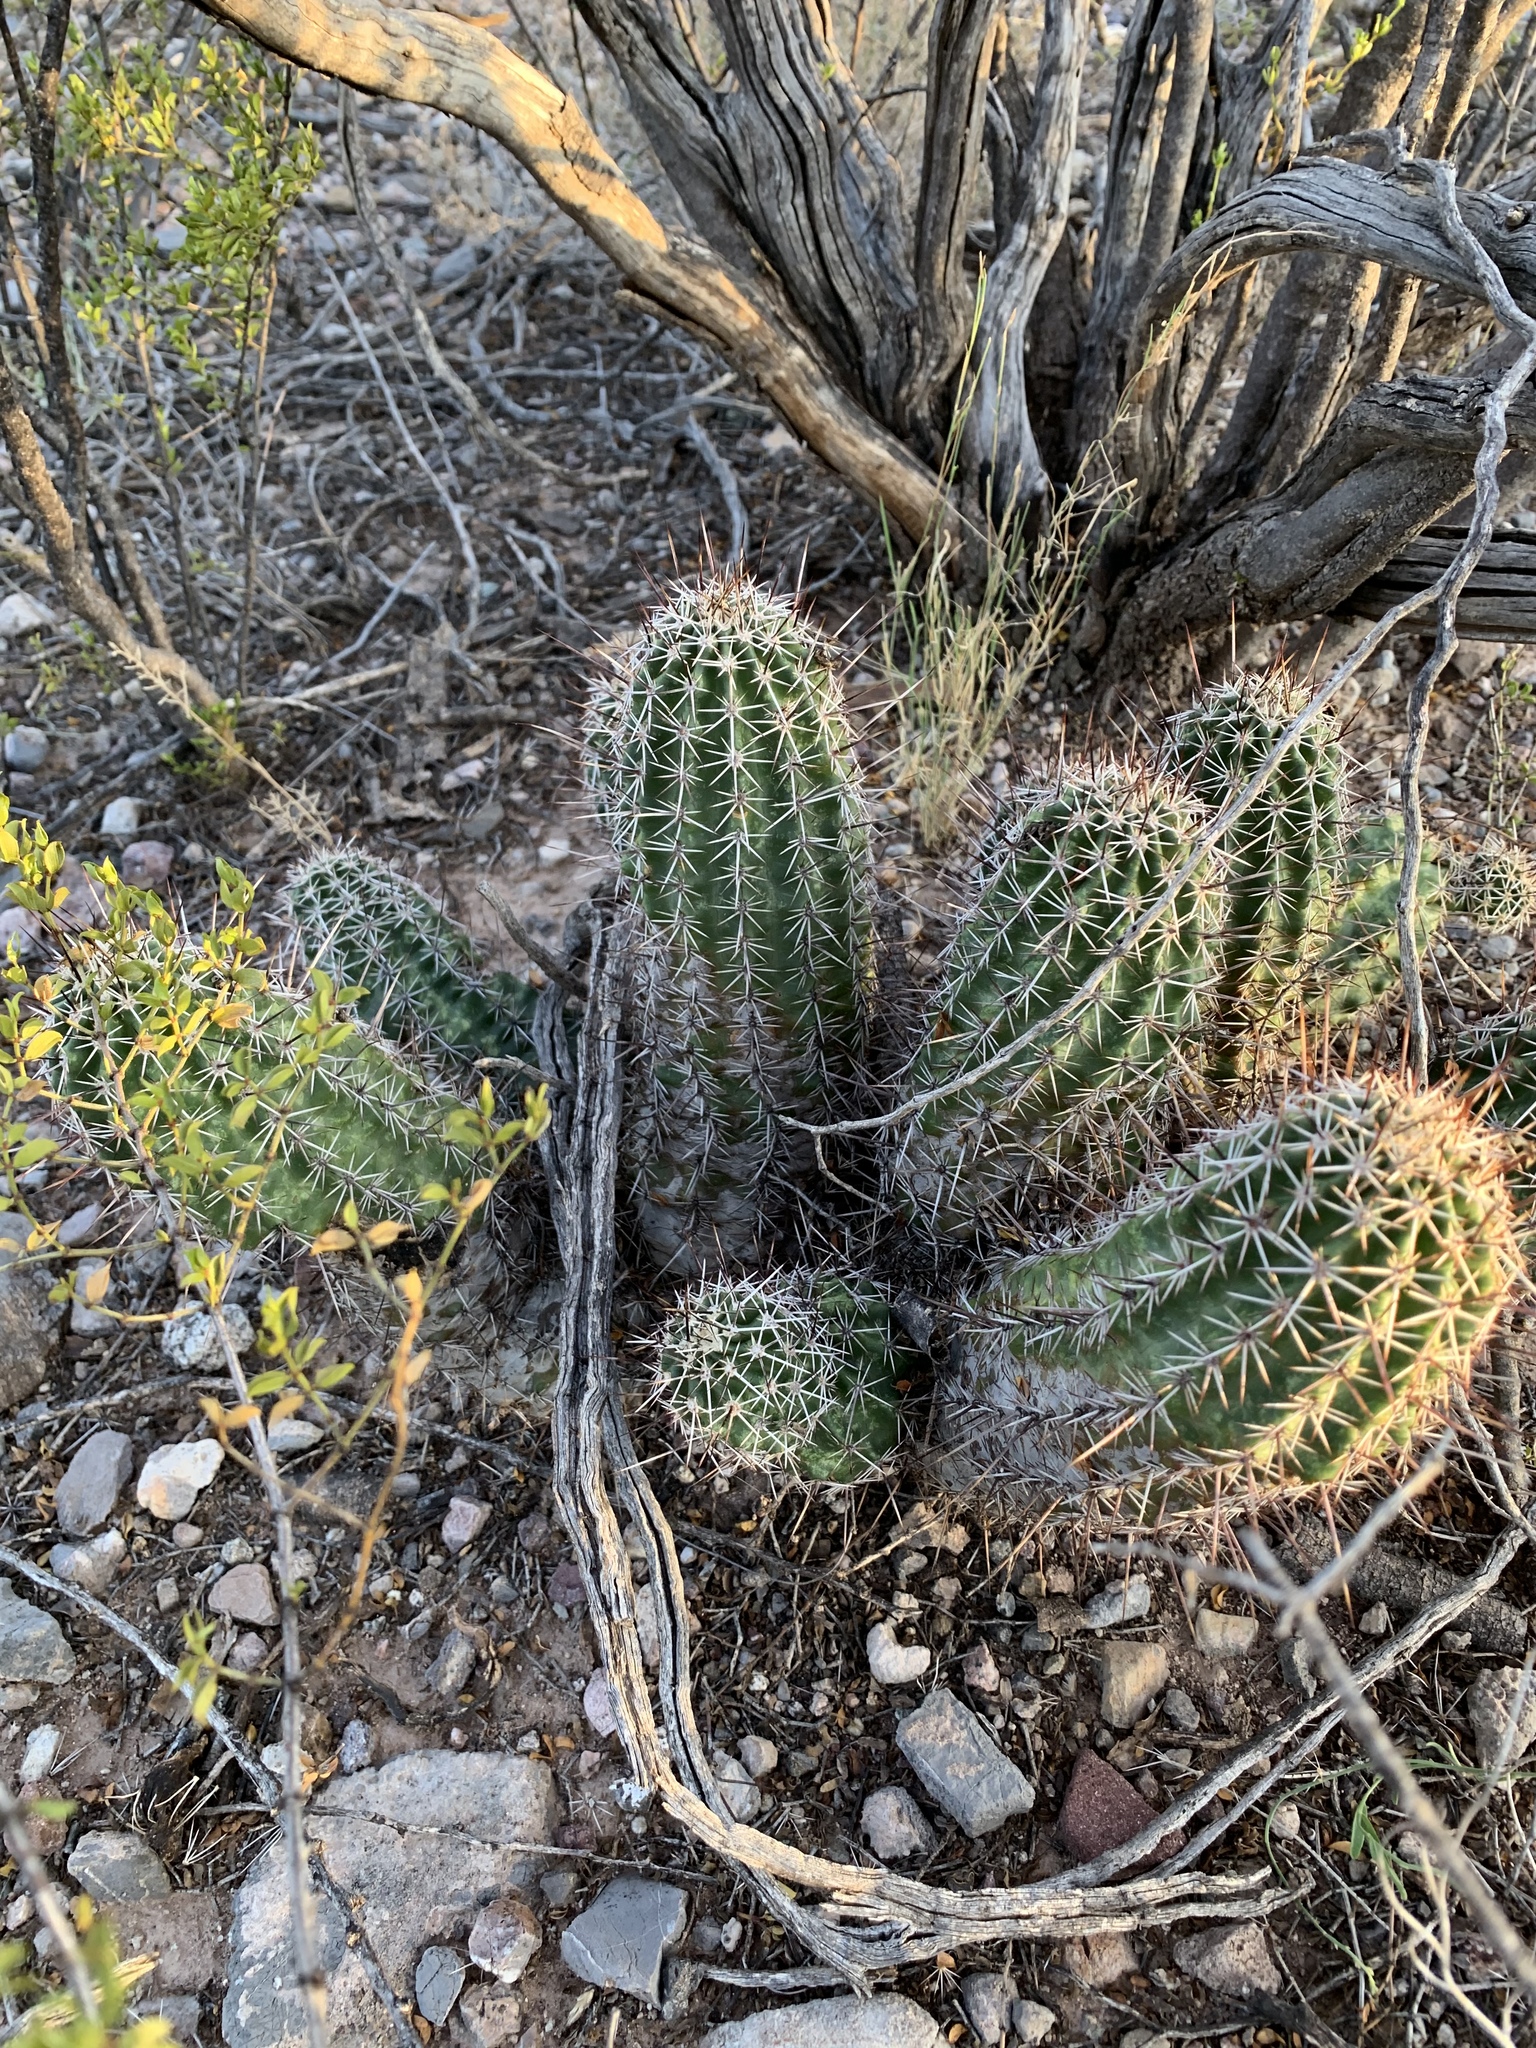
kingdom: Plantae
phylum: Tracheophyta
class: Magnoliopsida
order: Caryophyllales
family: Cactaceae
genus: Echinocereus
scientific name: Echinocereus fasciculatus
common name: Bundle hedgehog
